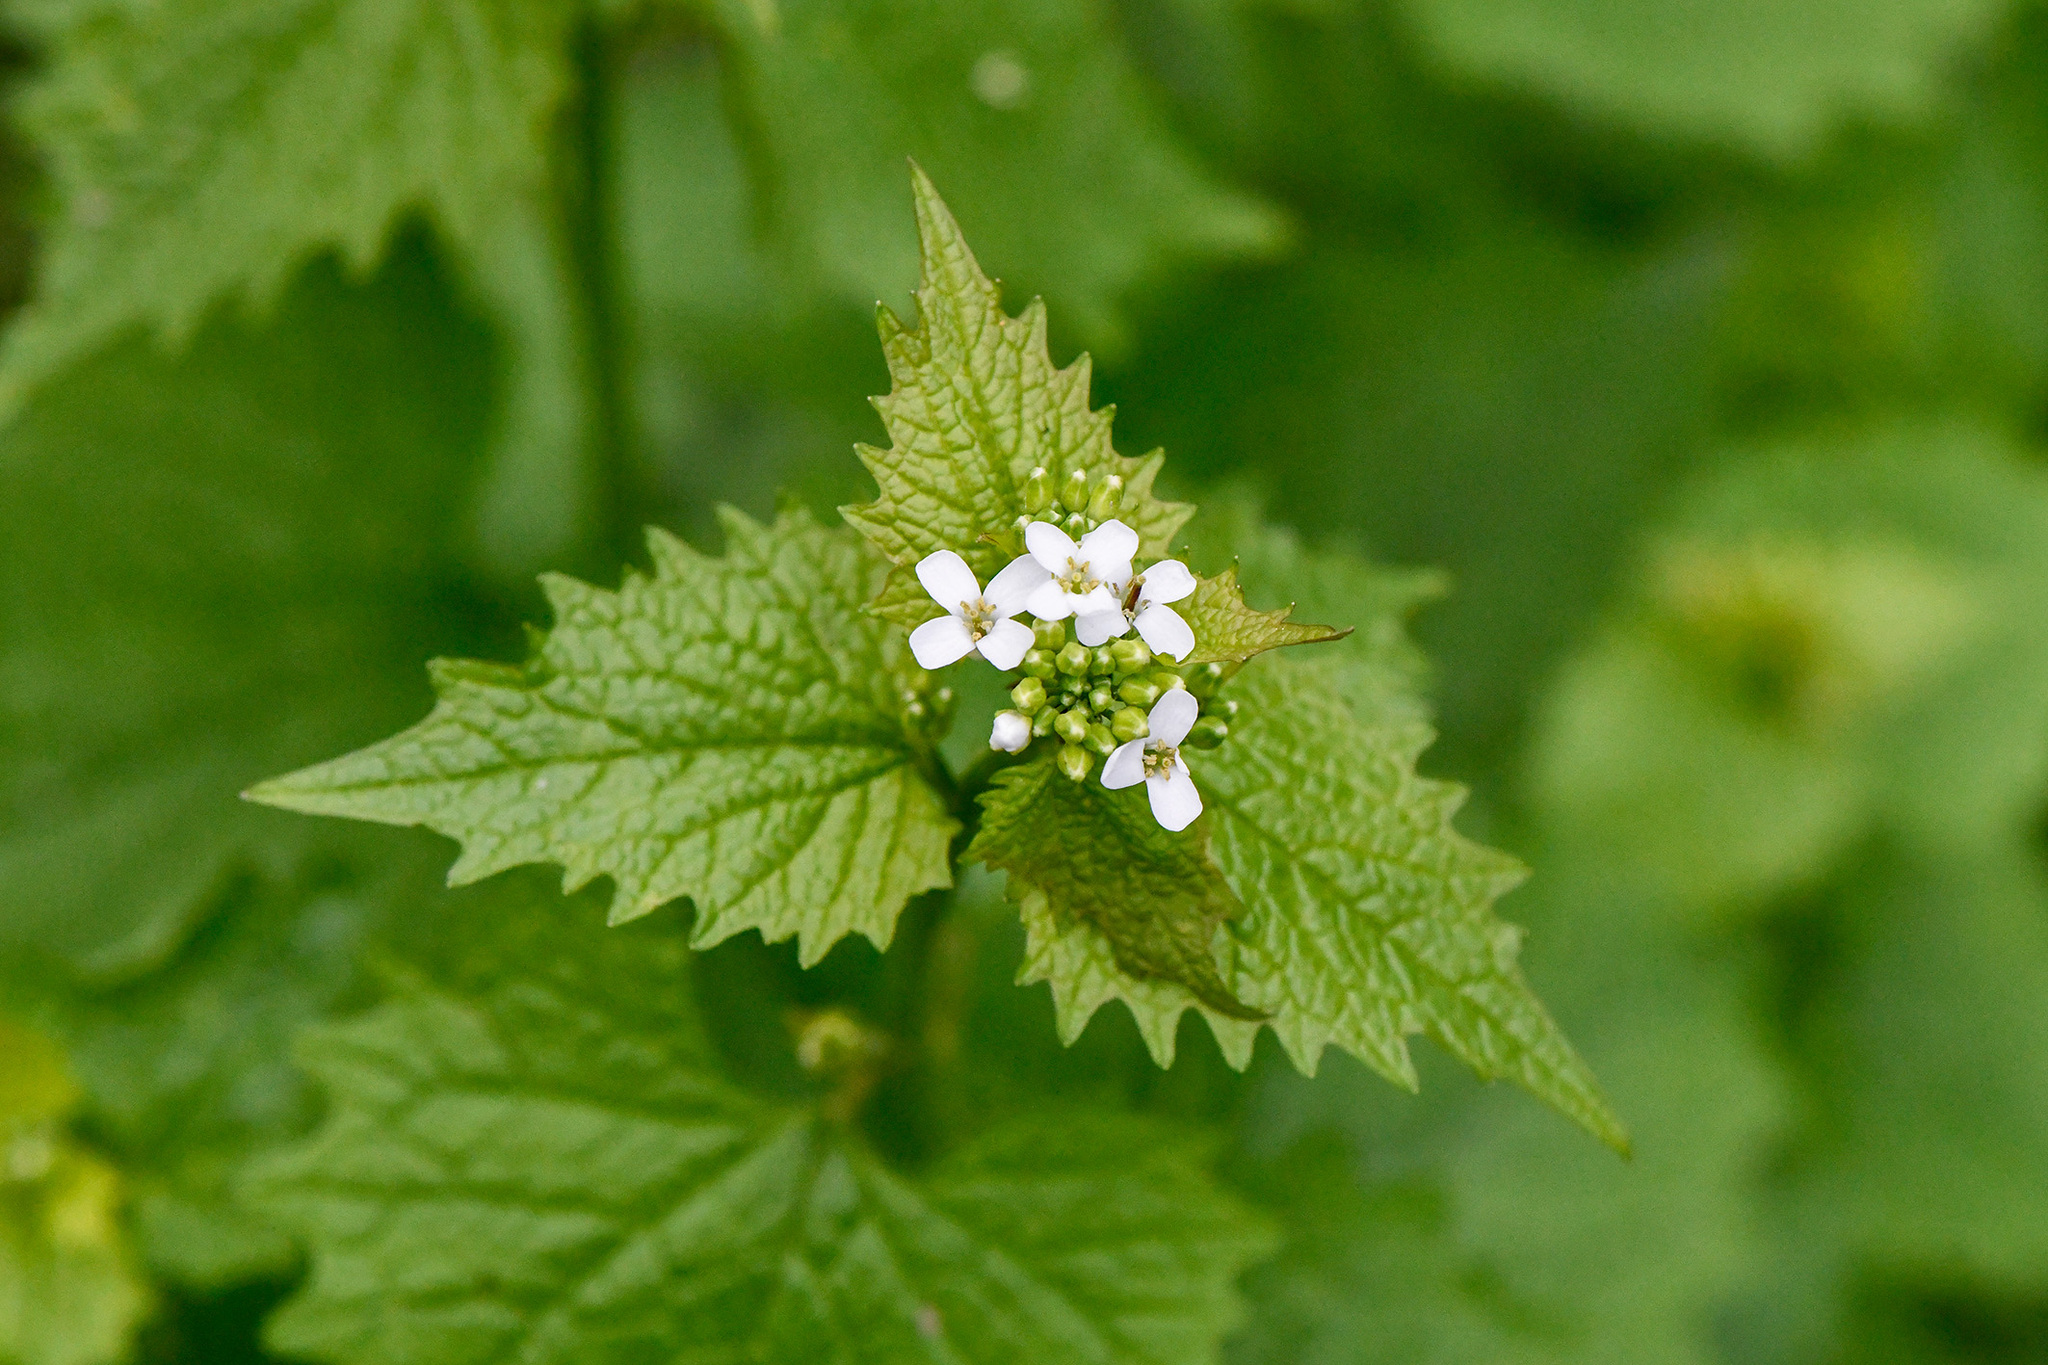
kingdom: Plantae
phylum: Tracheophyta
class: Magnoliopsida
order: Brassicales
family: Brassicaceae
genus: Alliaria
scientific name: Alliaria petiolata
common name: Garlic mustard
